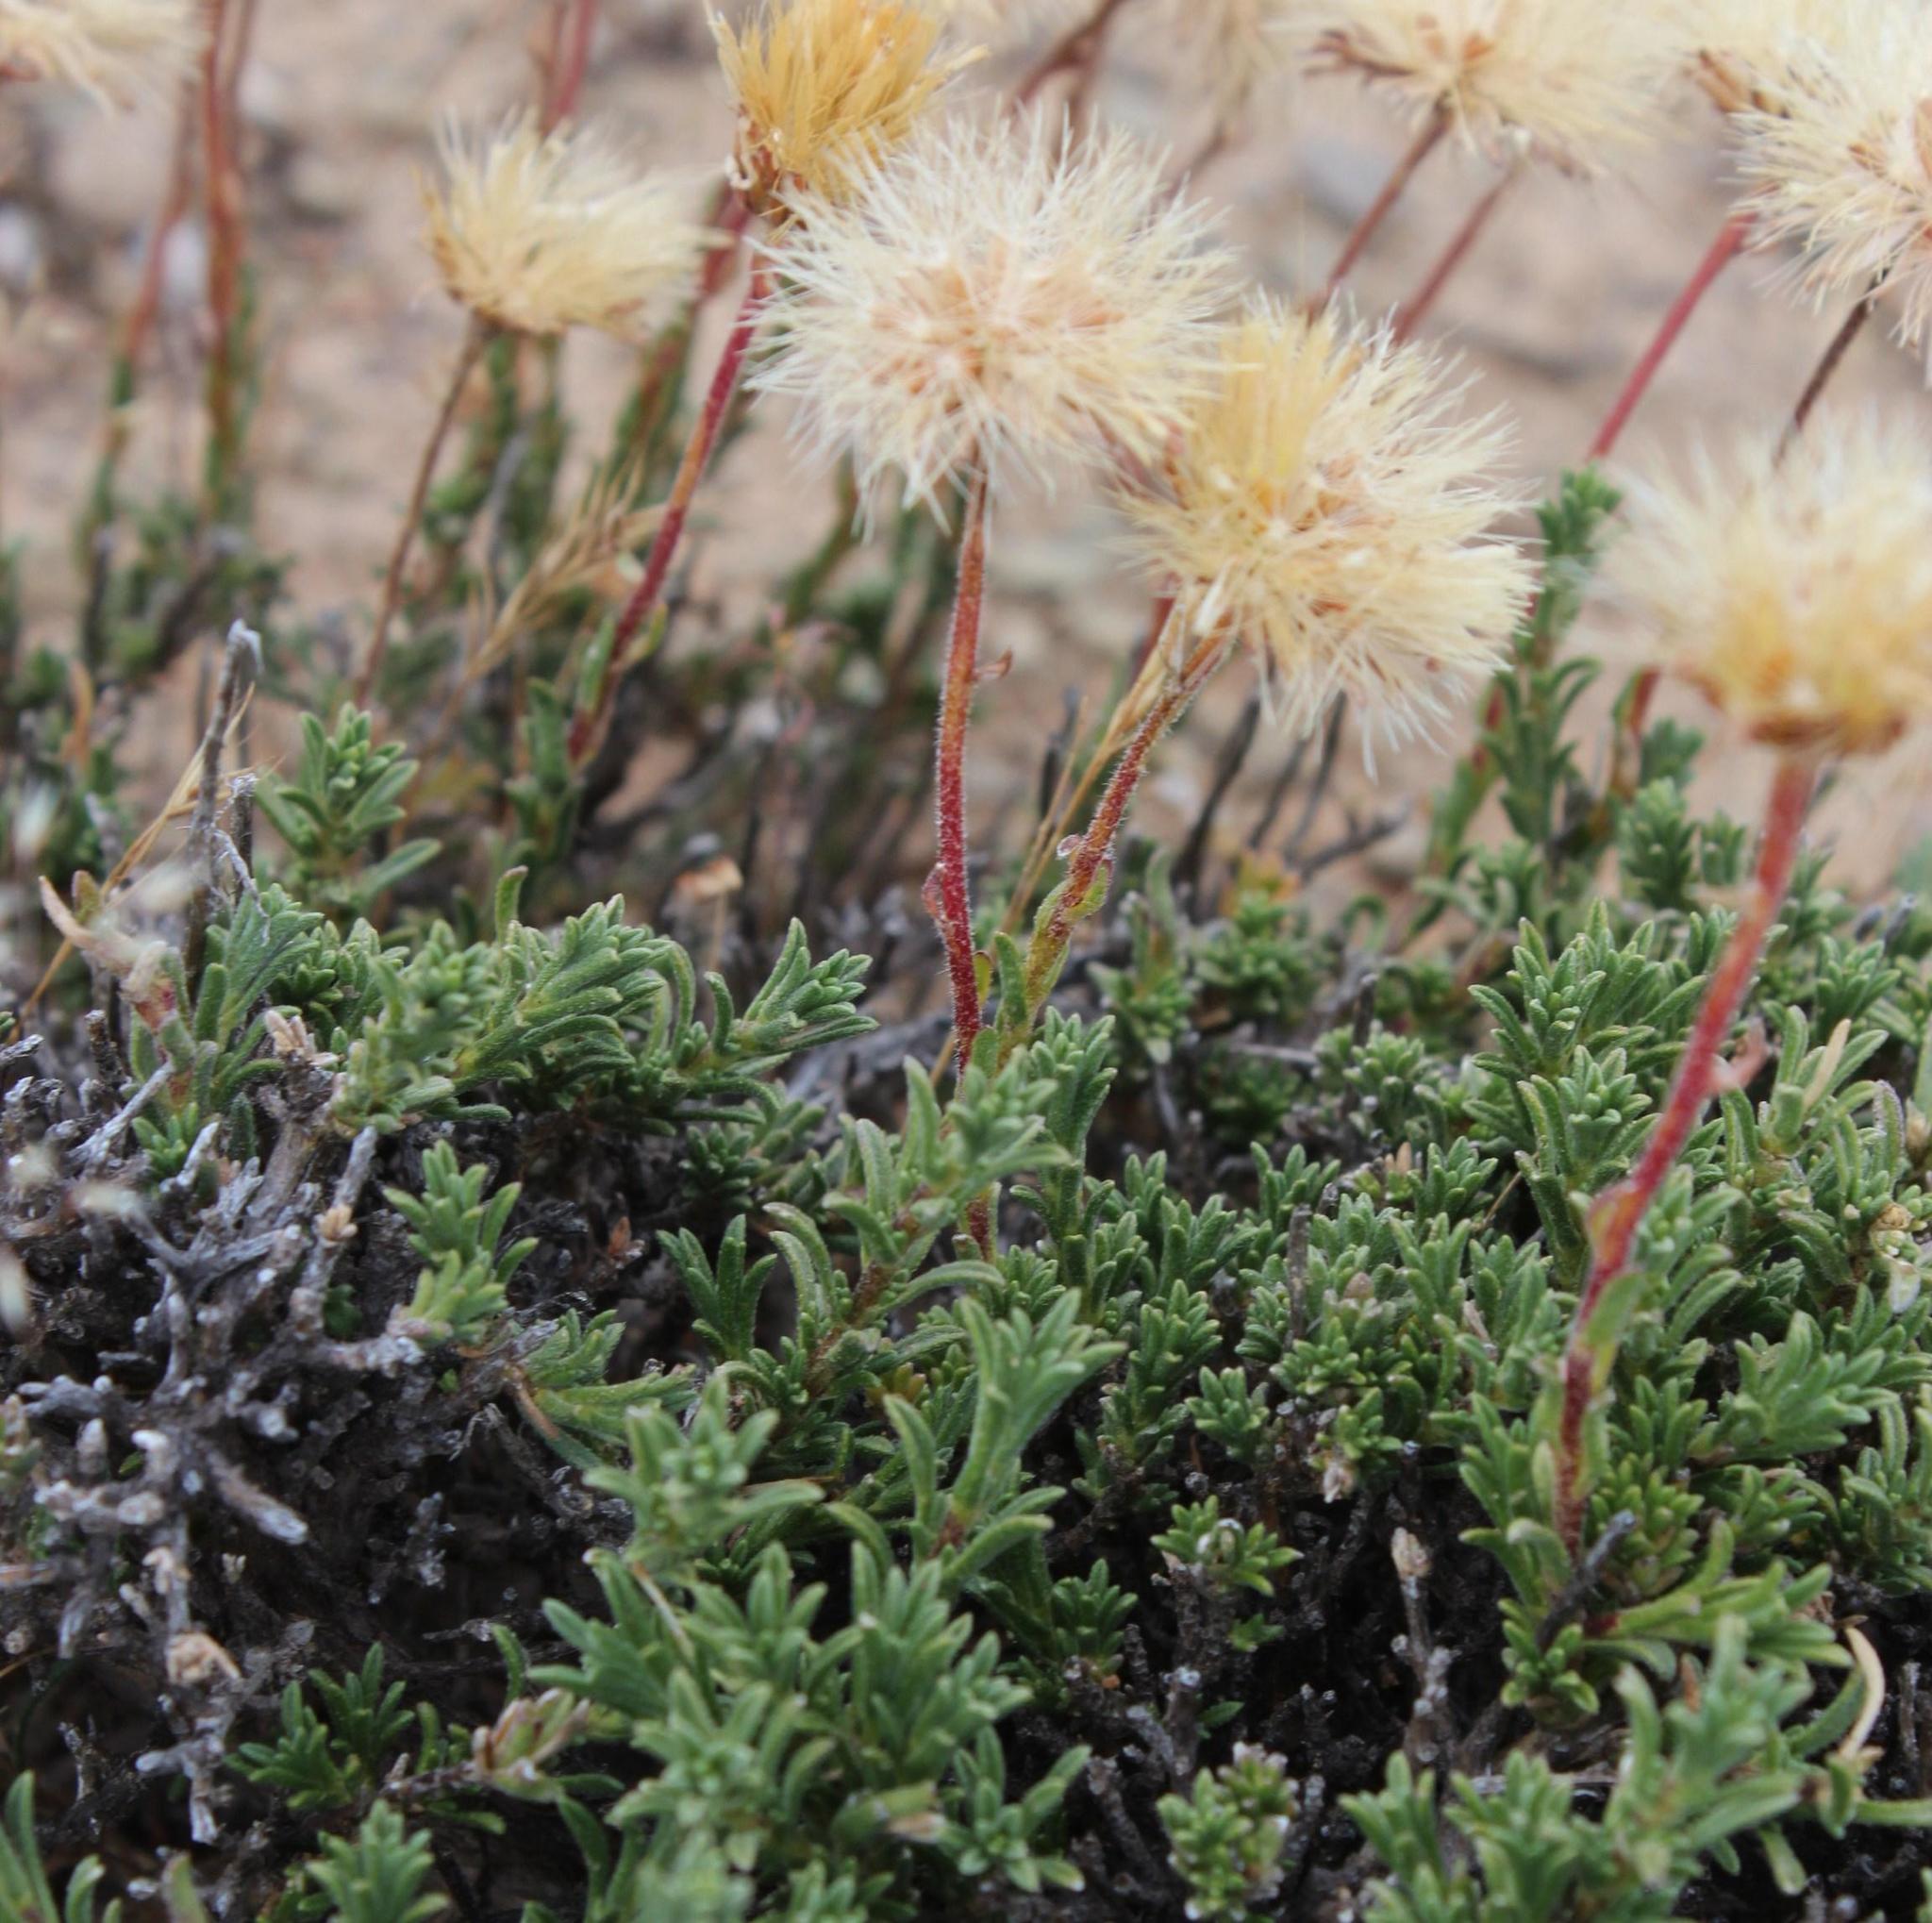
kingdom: Plantae
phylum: Tracheophyta
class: Magnoliopsida
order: Asterales
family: Asteraceae
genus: Felicia
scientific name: Felicia macrorrhiza
